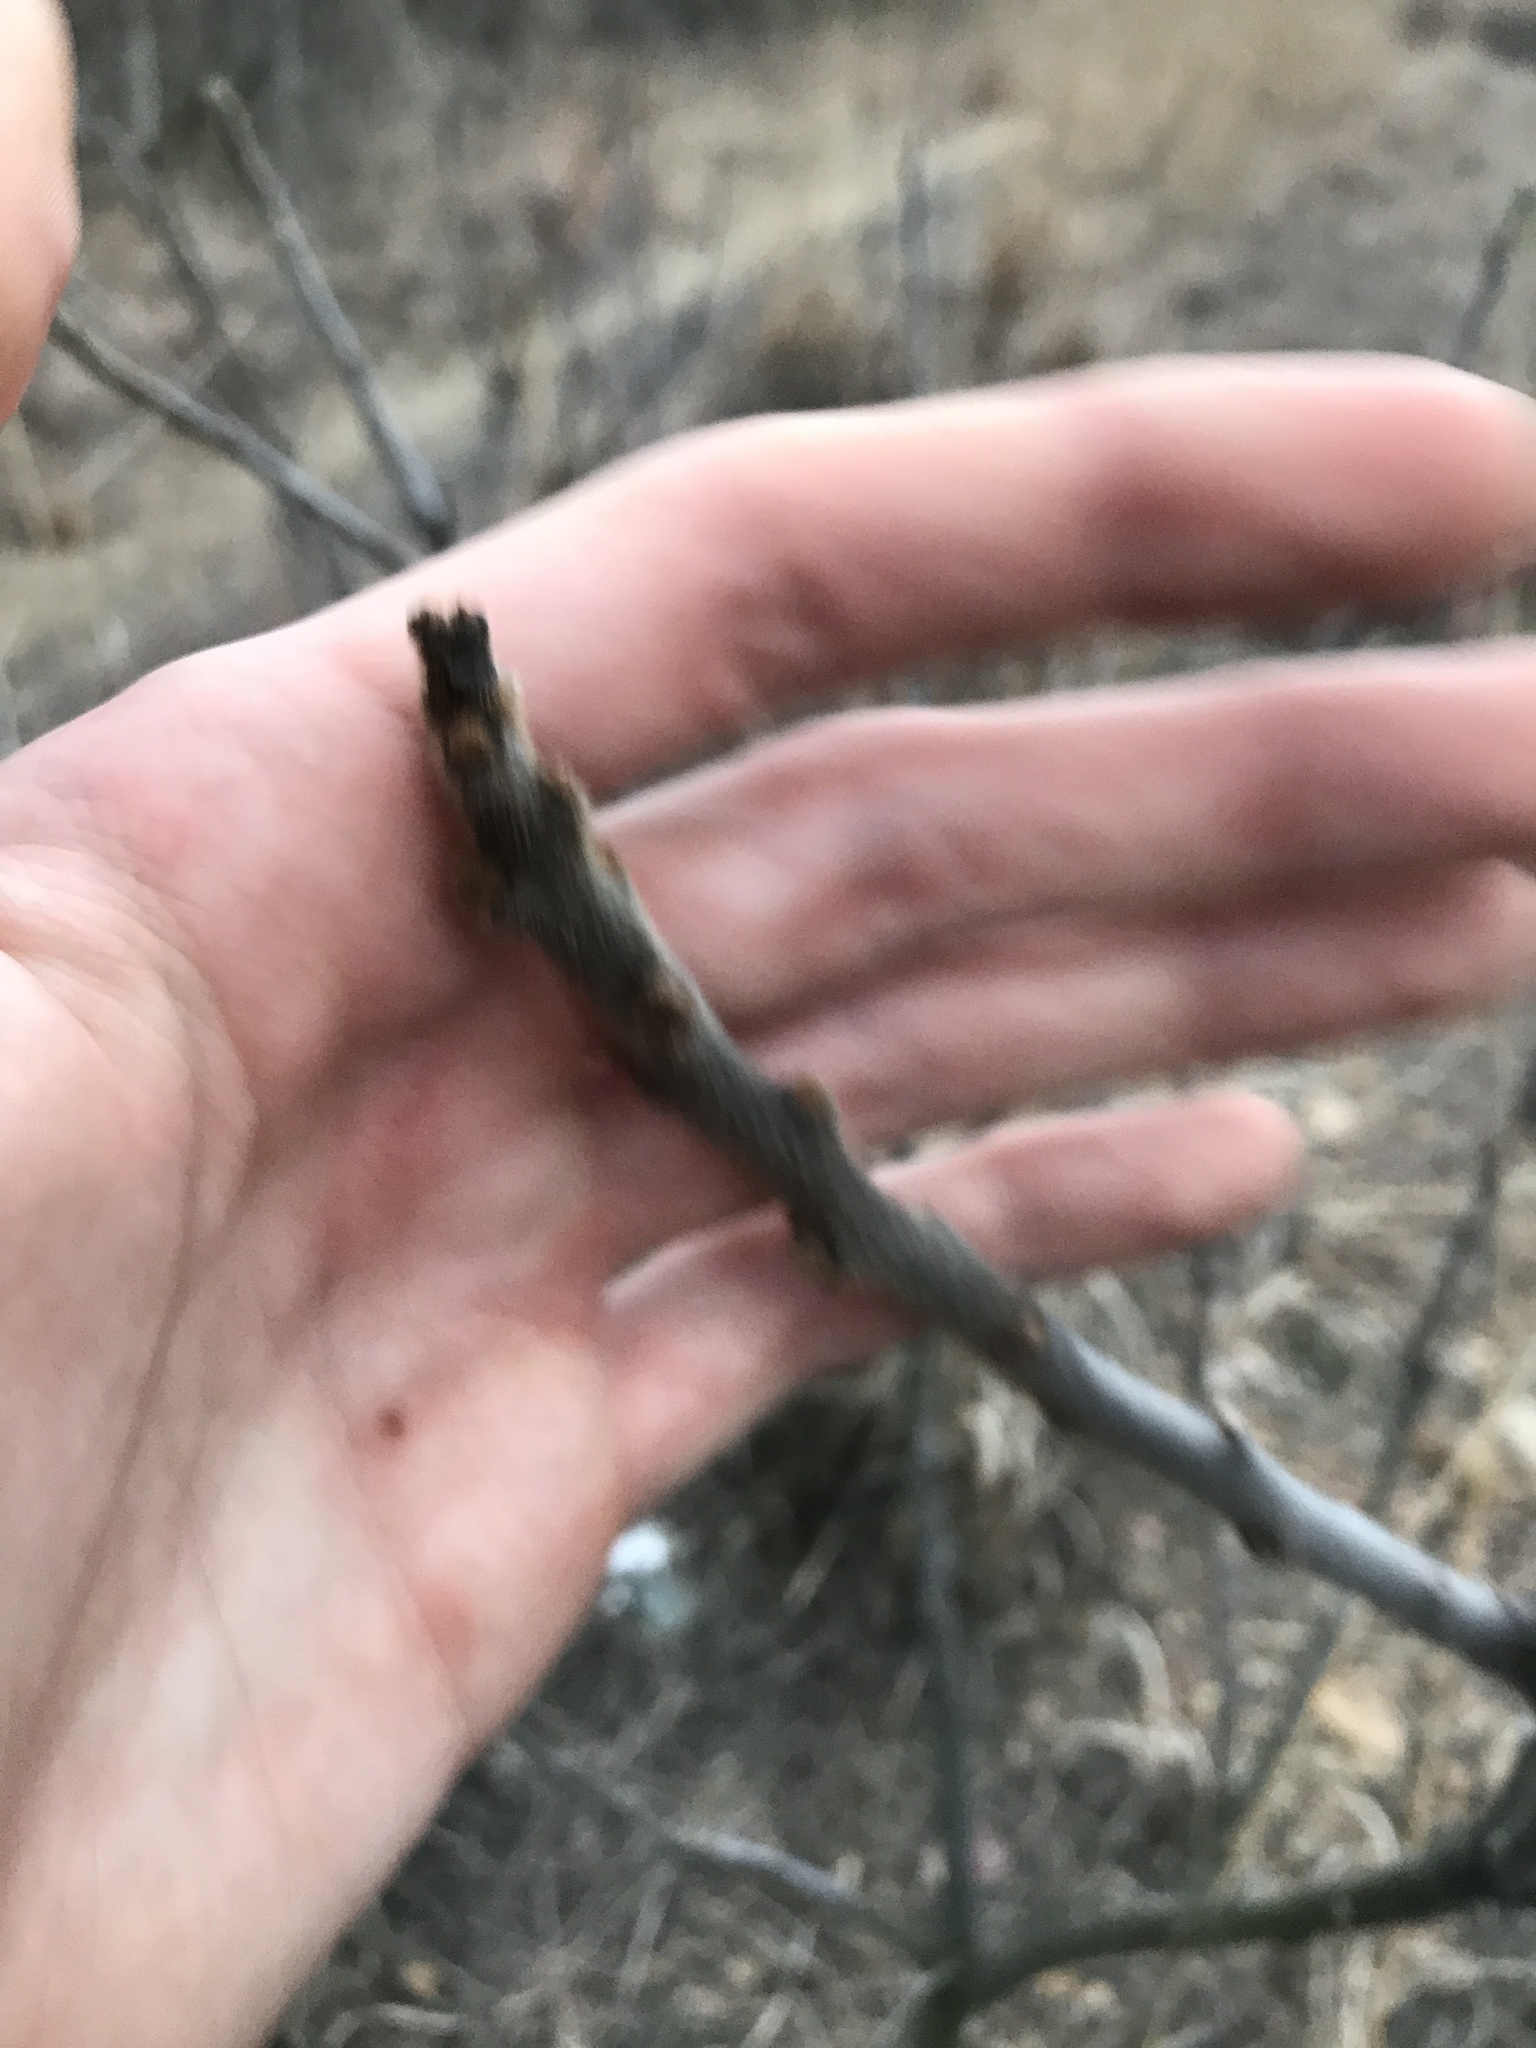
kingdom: Plantae
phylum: Tracheophyta
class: Magnoliopsida
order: Sapindales
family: Anacardiaceae
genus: Rhus
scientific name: Rhus typhina
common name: Staghorn sumac
